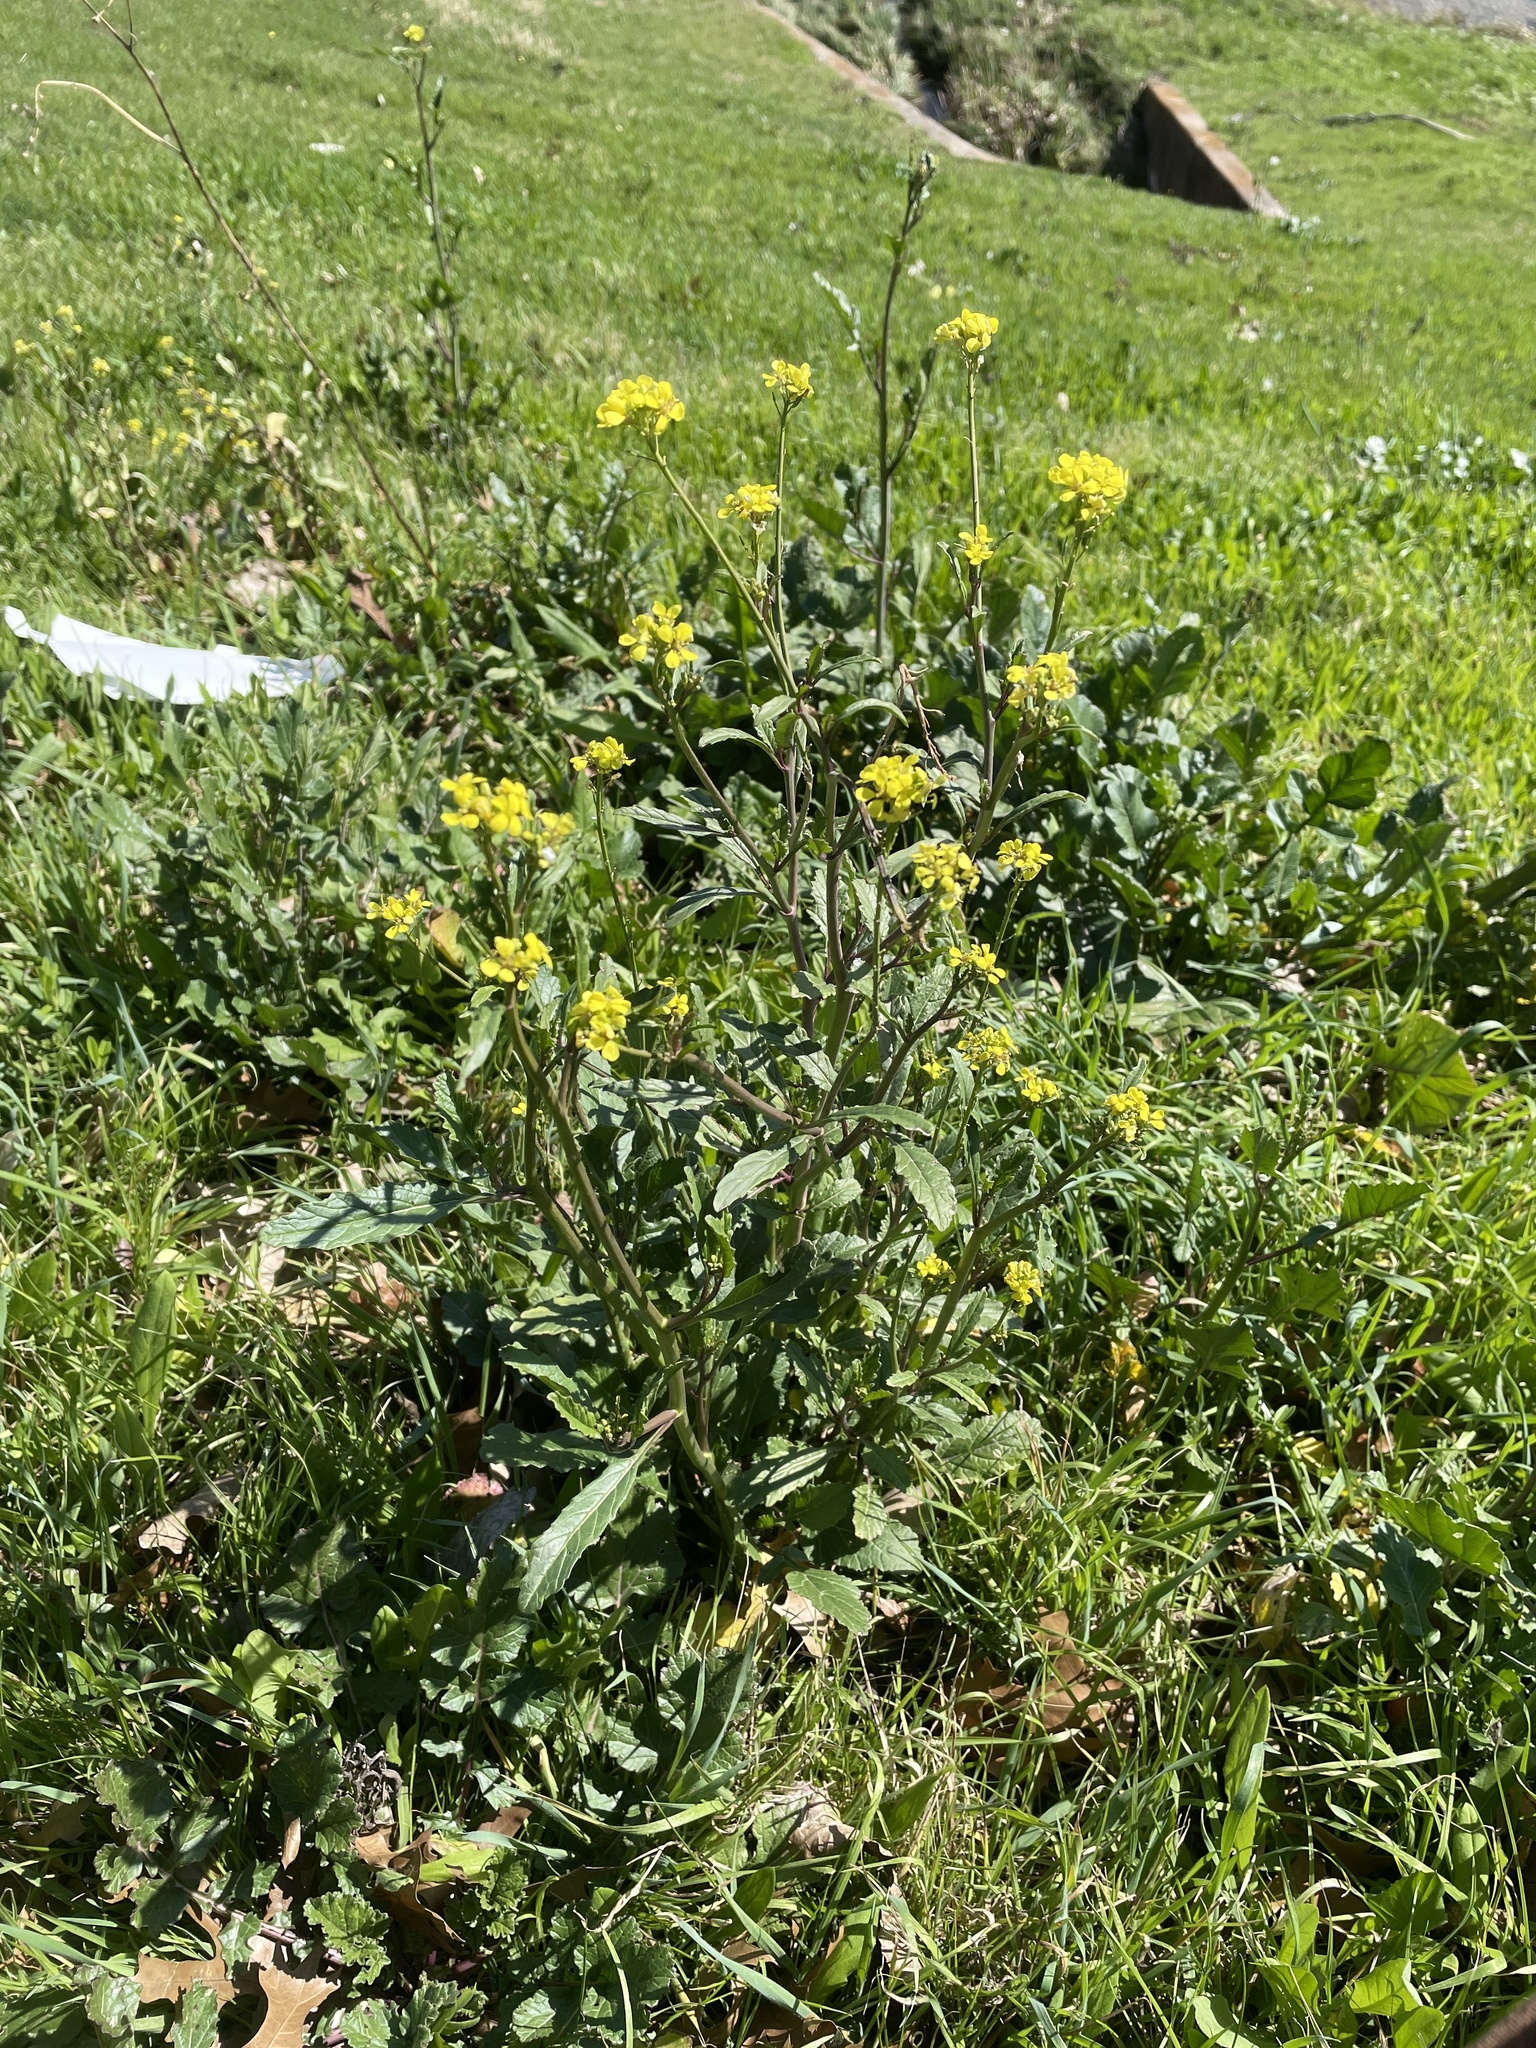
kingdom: Plantae
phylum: Tracheophyta
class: Magnoliopsida
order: Brassicales
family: Brassicaceae
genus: Rapistrum
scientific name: Rapistrum rugosum
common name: Annual bastardcabbage
